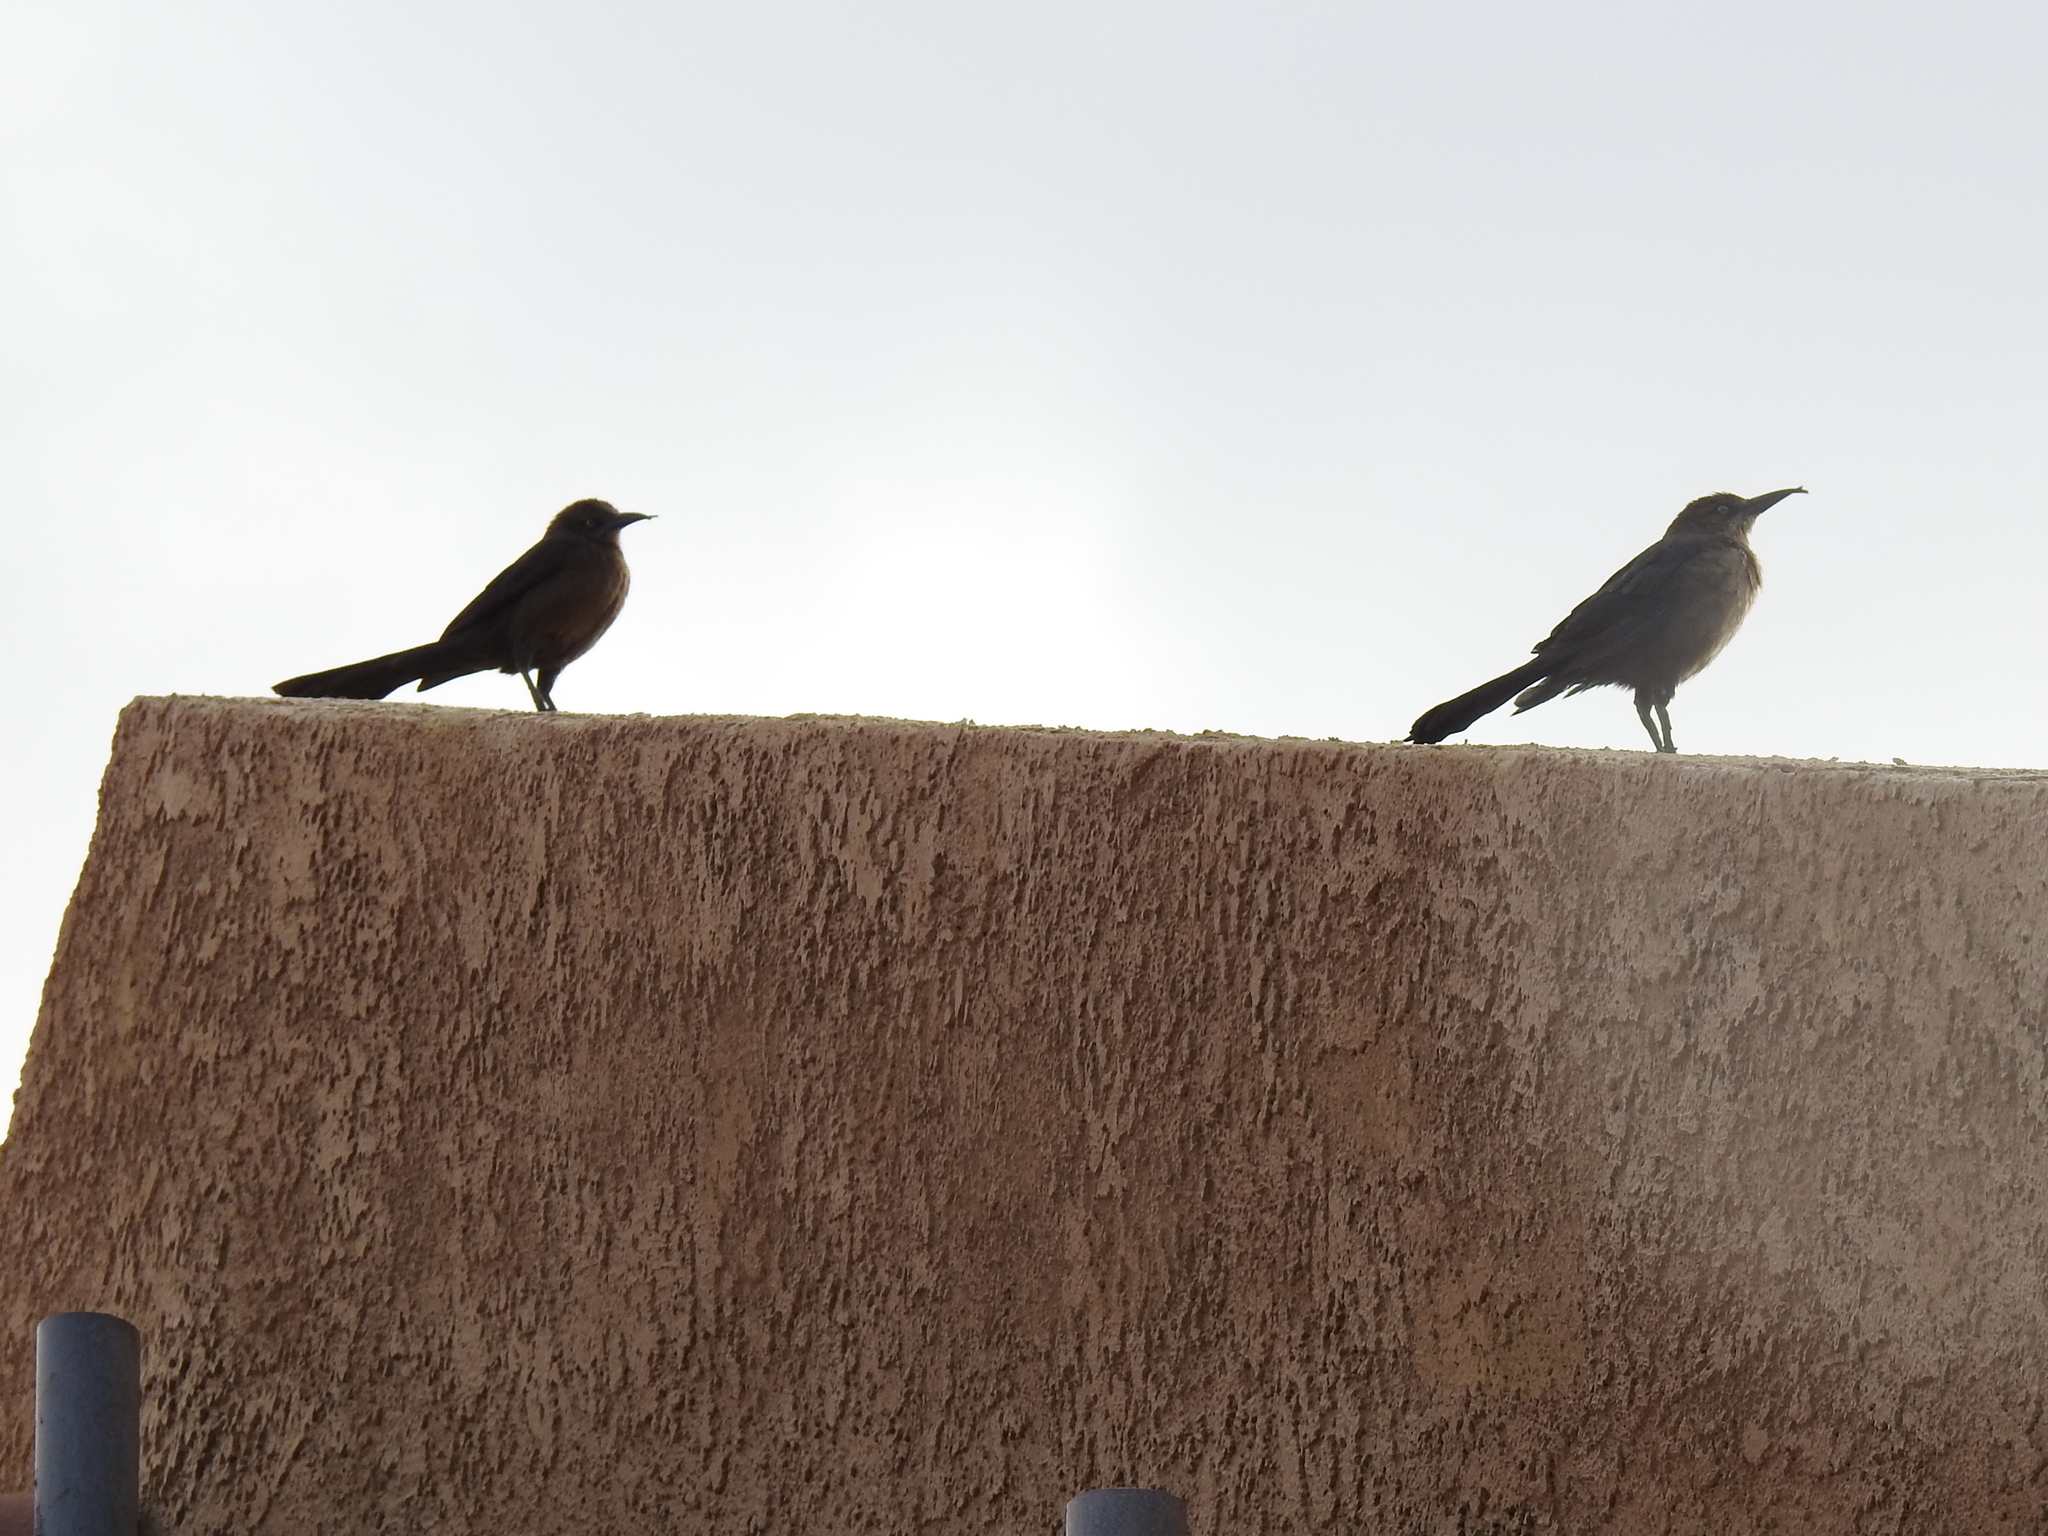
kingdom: Animalia
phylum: Chordata
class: Aves
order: Passeriformes
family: Icteridae
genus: Quiscalus
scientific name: Quiscalus mexicanus
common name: Great-tailed grackle
